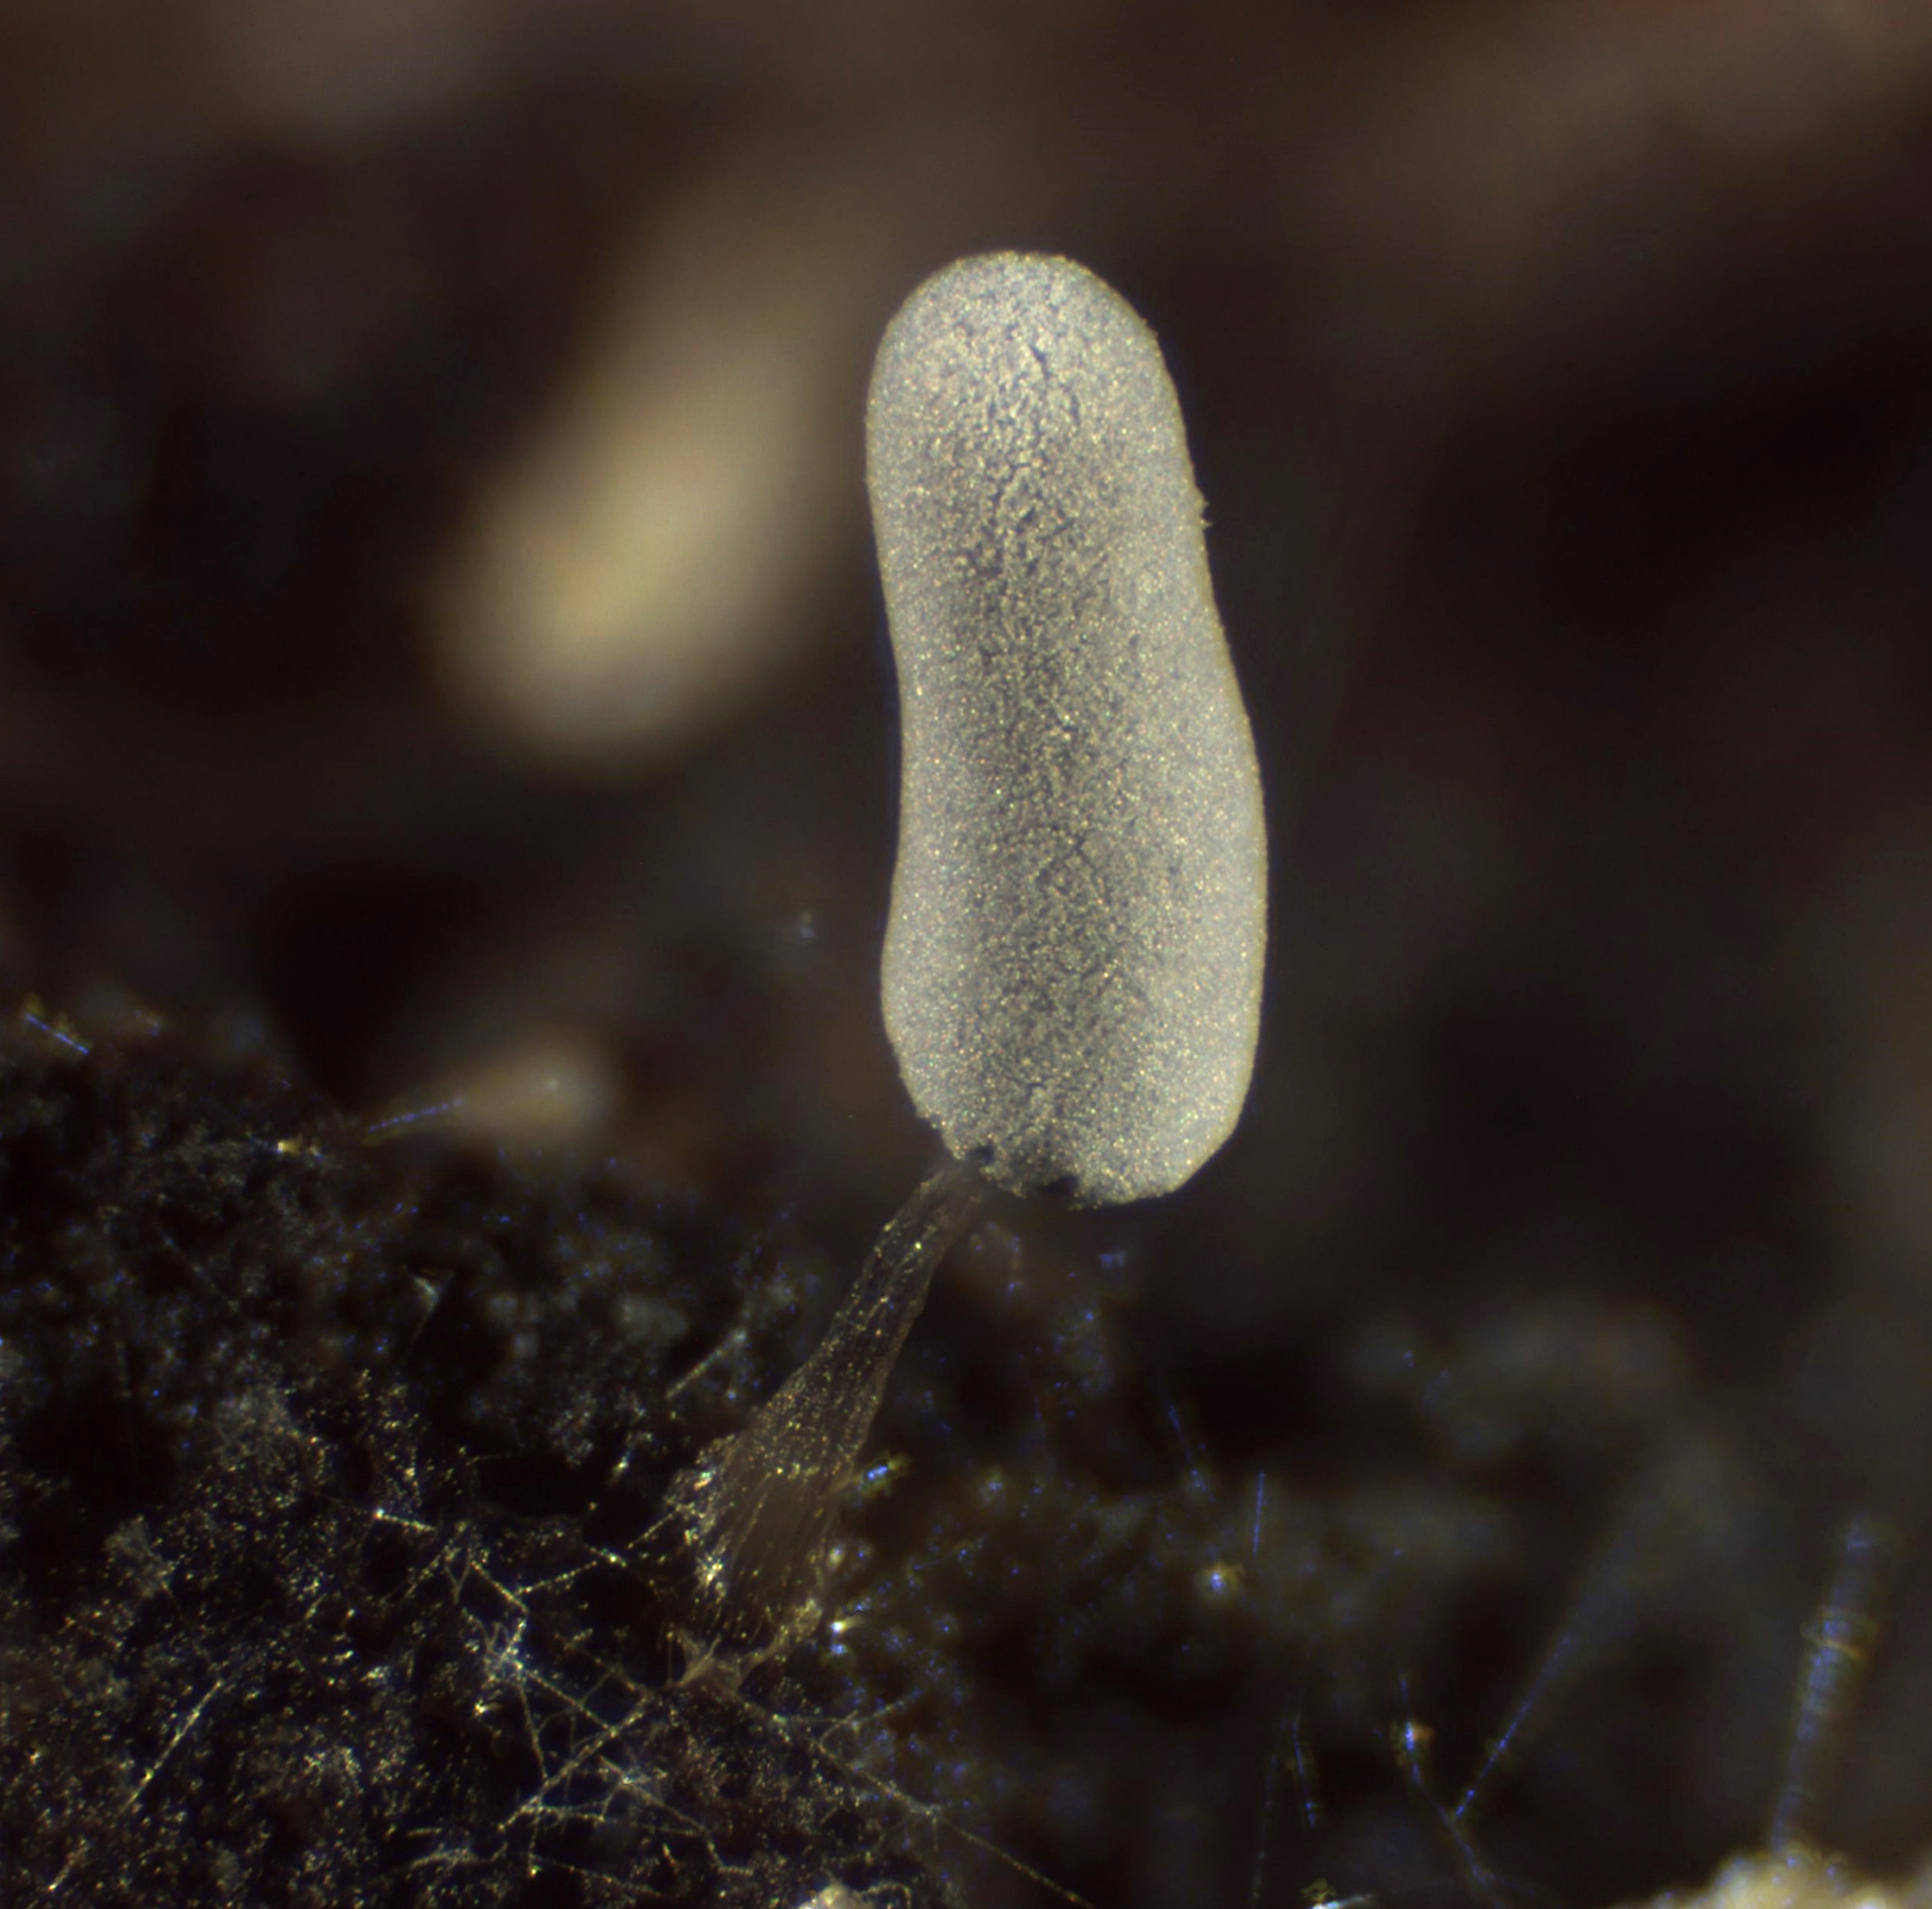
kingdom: Protozoa
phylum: Mycetozoa
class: Myxomycetes
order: Trichiales
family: Arcyriaceae
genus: Arcyria
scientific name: Arcyria cinerea
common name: White carnival candy slime mold
